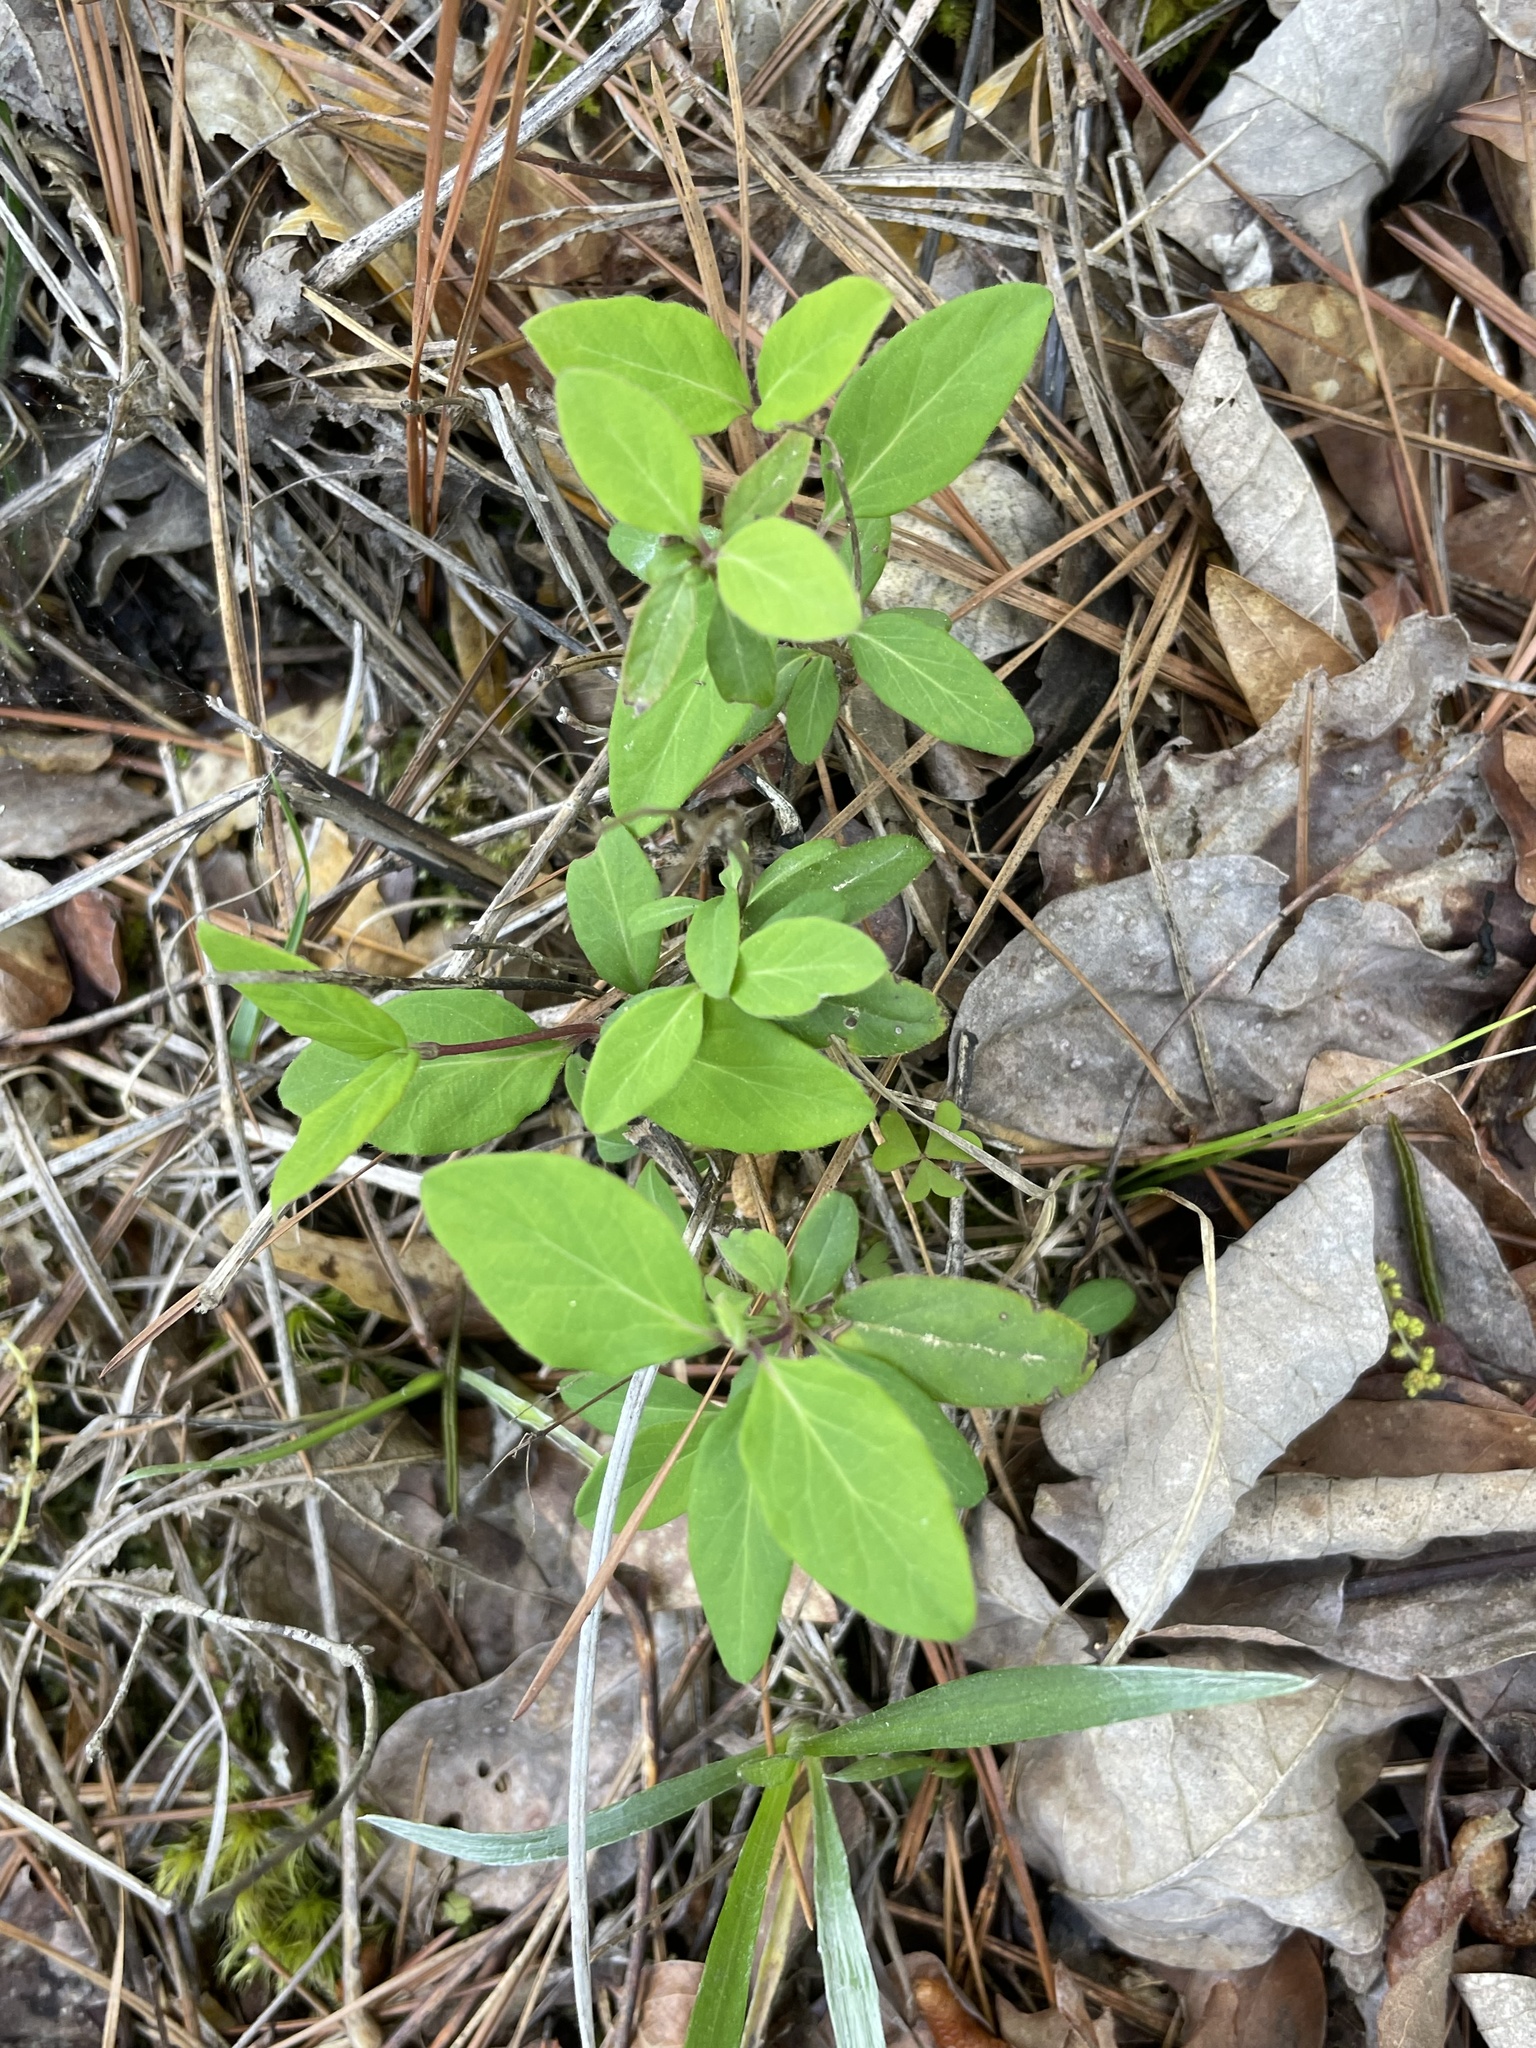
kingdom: Plantae
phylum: Tracheophyta
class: Magnoliopsida
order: Dipsacales
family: Caprifoliaceae
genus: Lonicera
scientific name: Lonicera japonica
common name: Japanese honeysuckle
